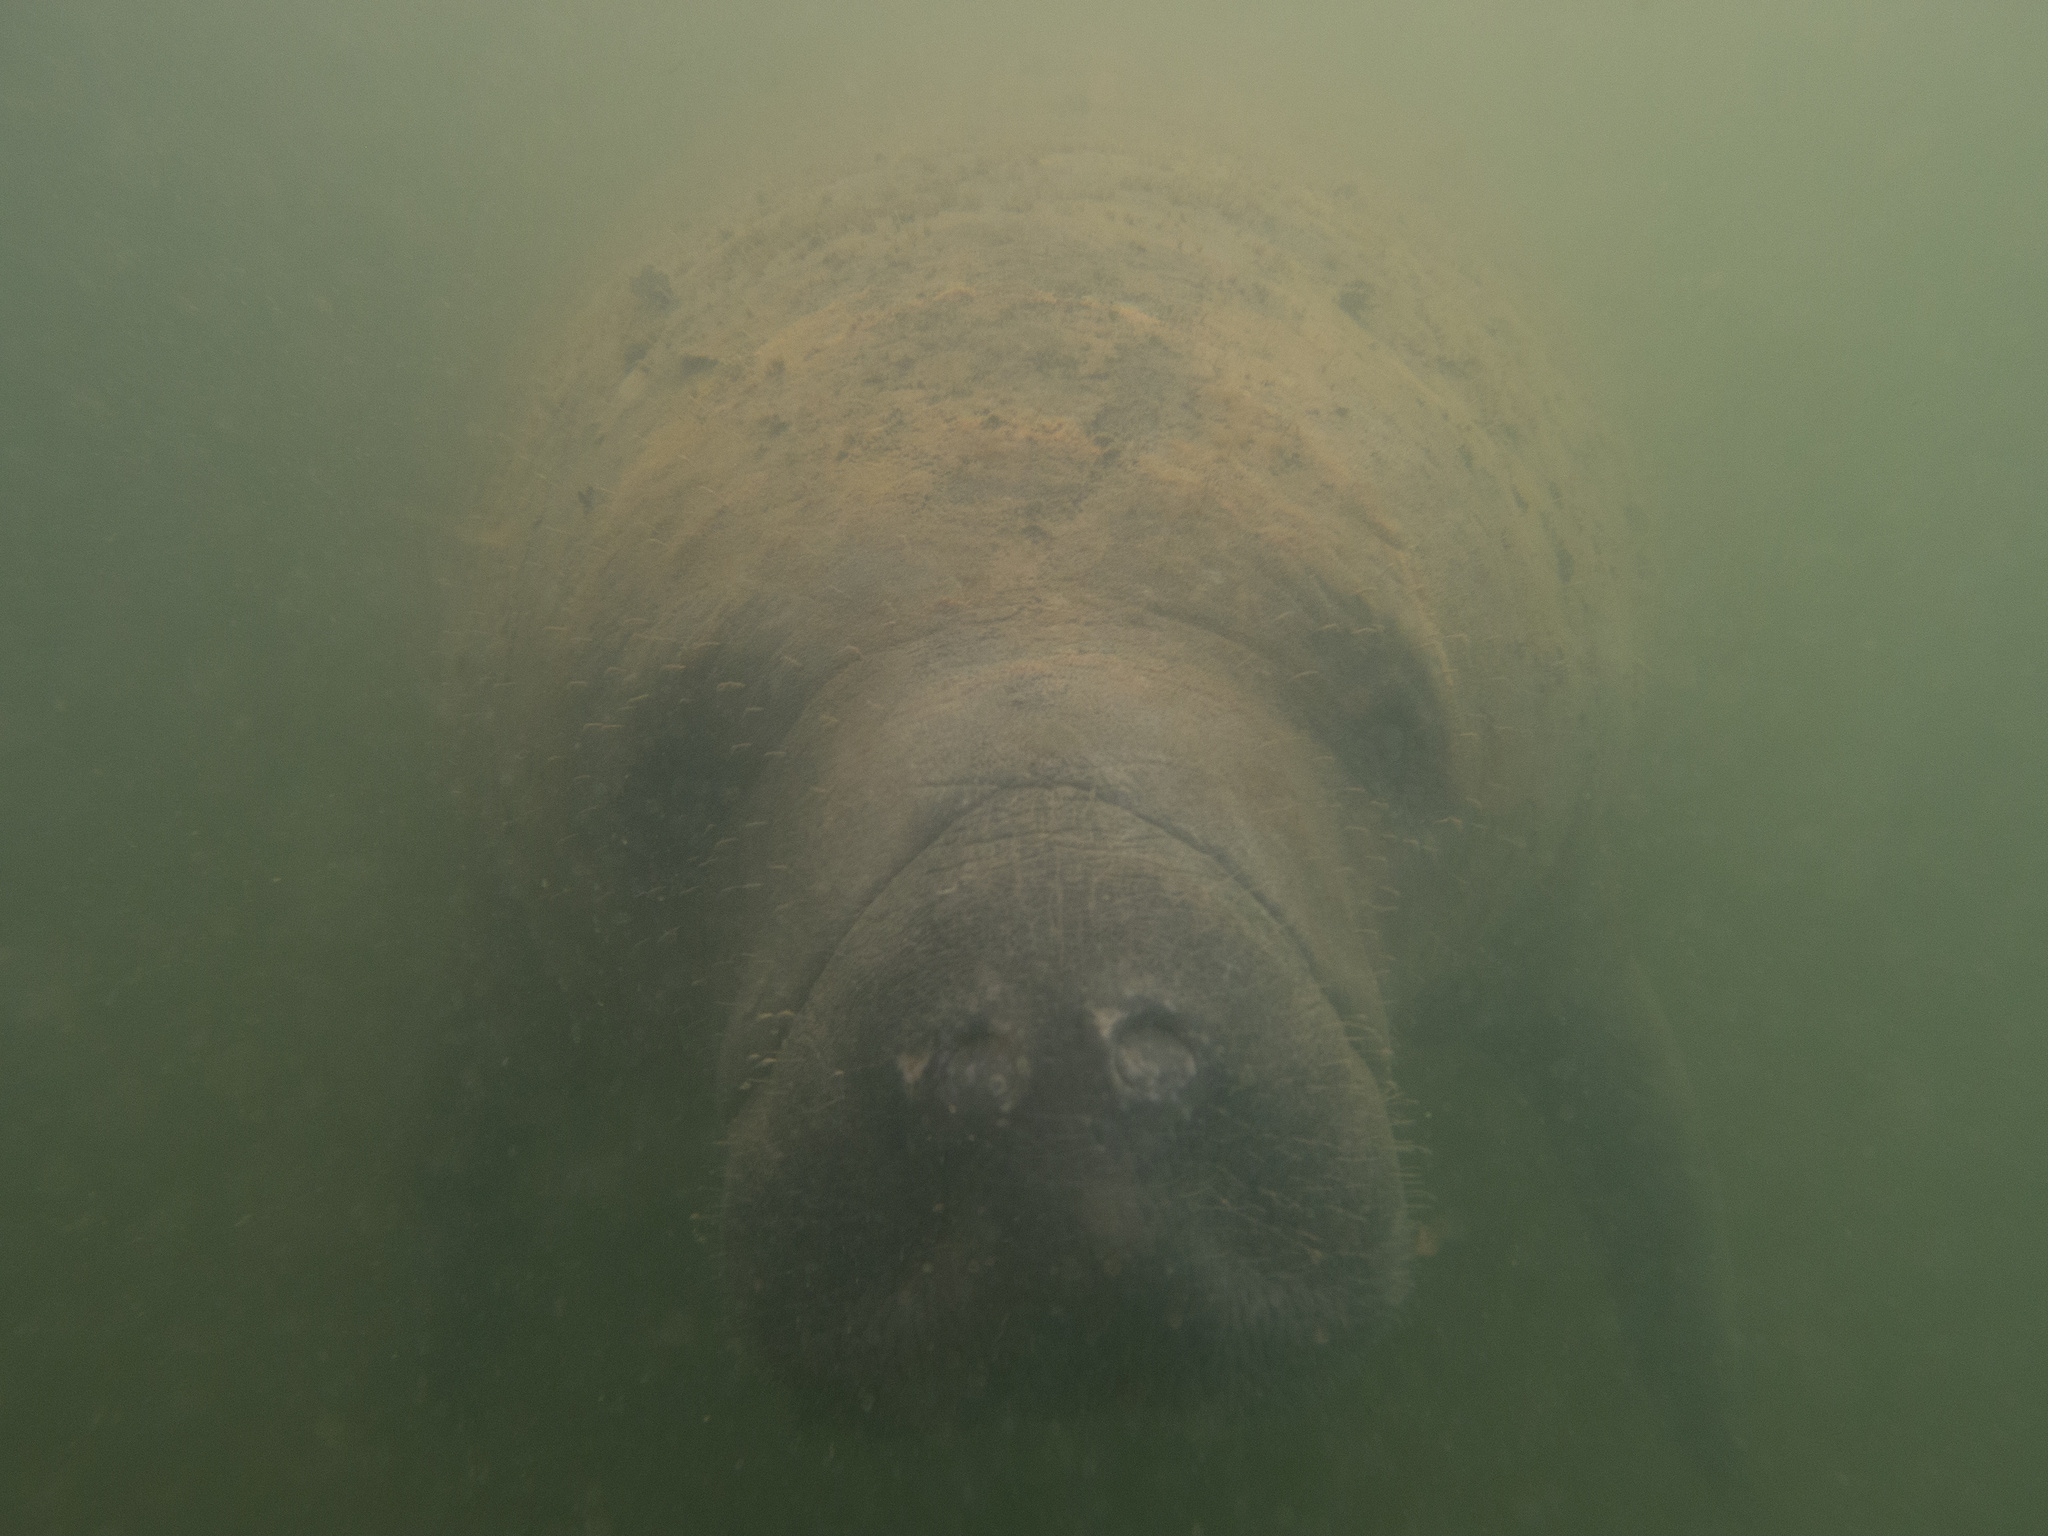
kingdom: Animalia
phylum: Chordata
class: Mammalia
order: Sirenia
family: Trichechidae
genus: Trichechus
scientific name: Trichechus manatus
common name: West indian manatee
